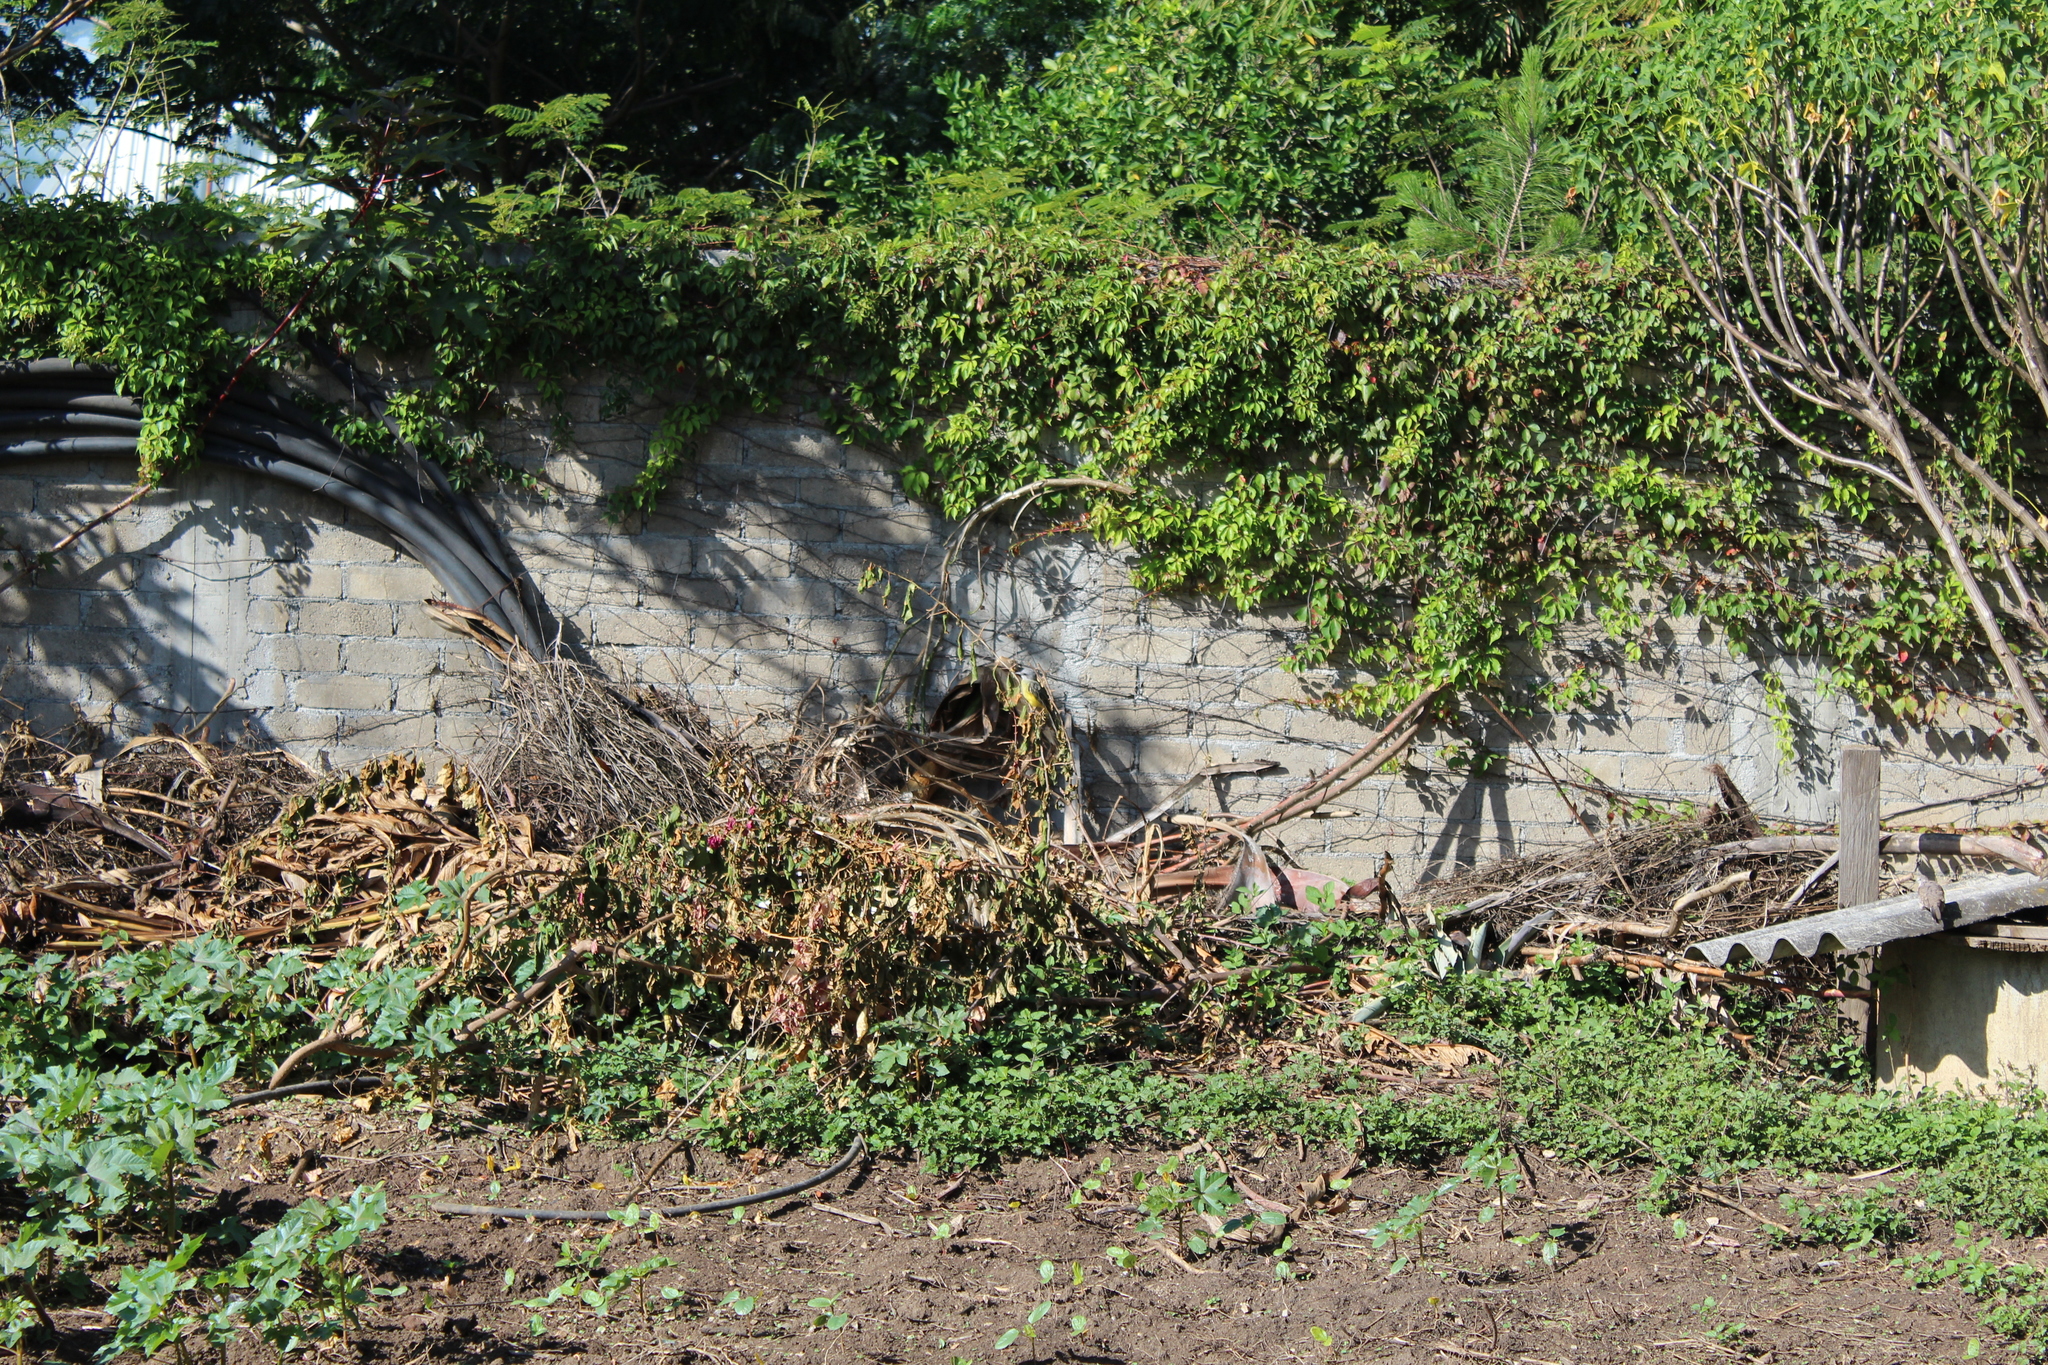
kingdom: Animalia
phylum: Chordata
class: Aves
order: Passeriformes
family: Tyrannidae
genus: Tyrannus
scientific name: Tyrannus melancholicus
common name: Tropical kingbird
